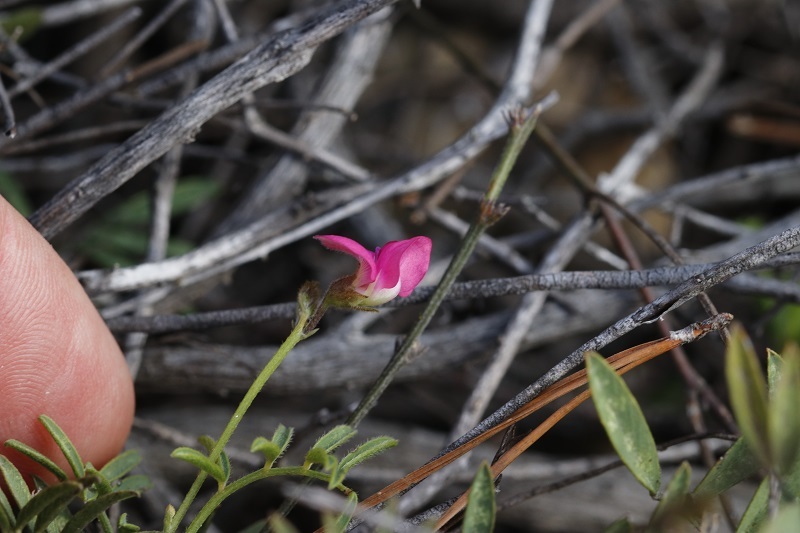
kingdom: Plantae
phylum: Tracheophyta
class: Magnoliopsida
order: Fabales
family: Fabaceae
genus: Tephrosia
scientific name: Tephrosia capensis
